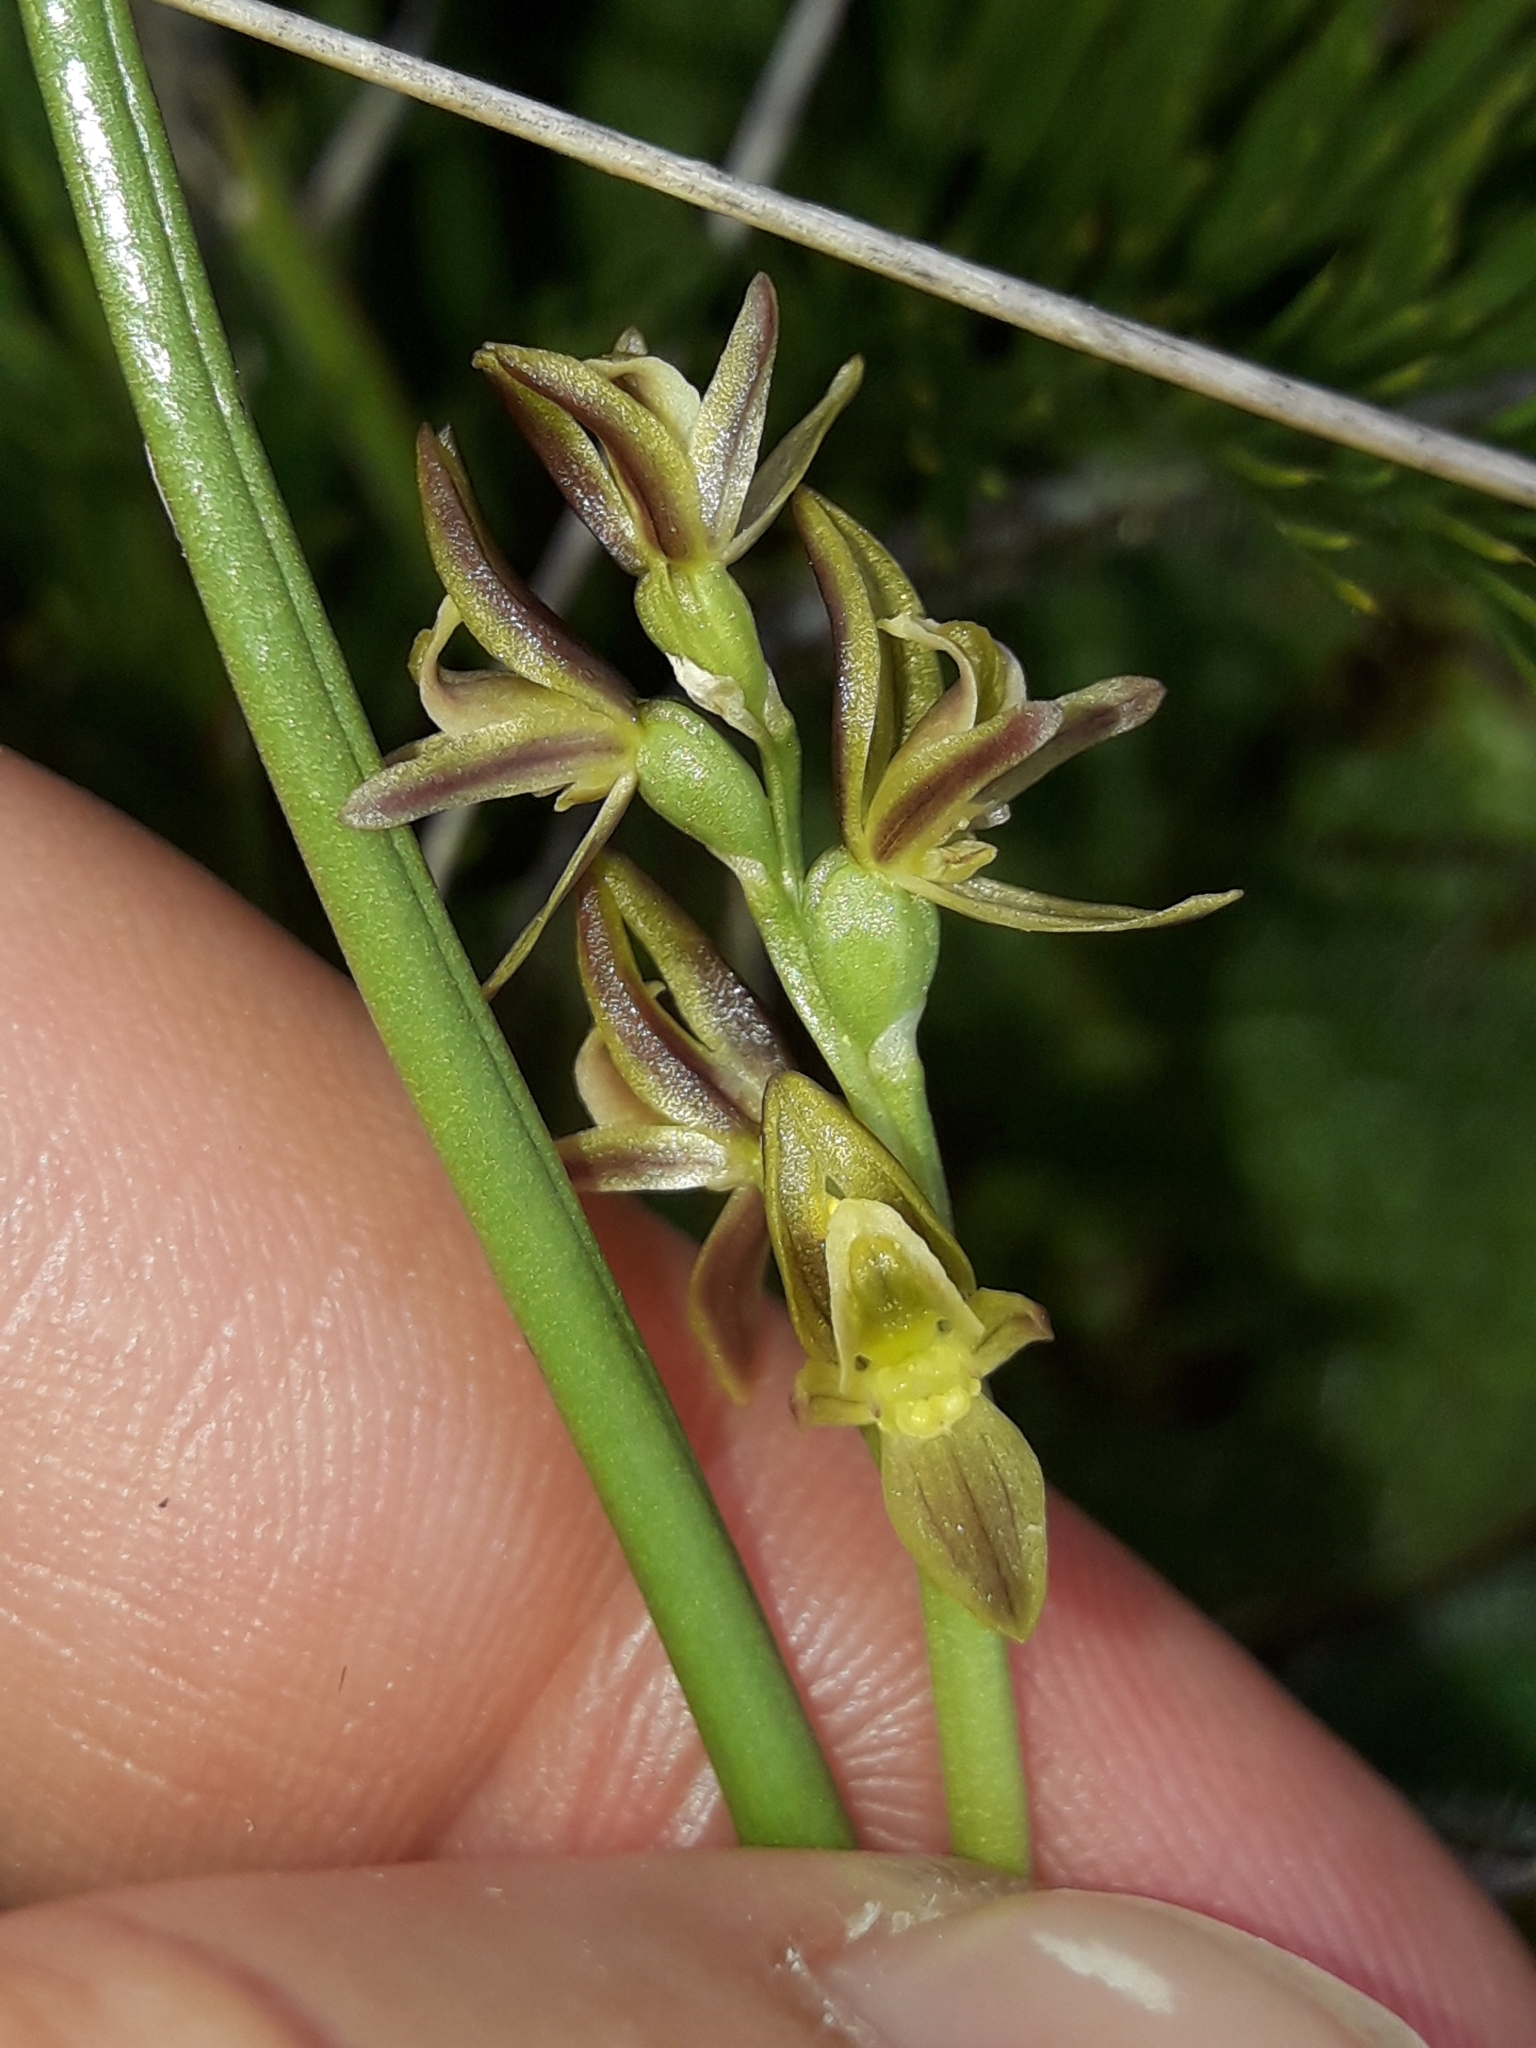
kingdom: Plantae
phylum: Tracheophyta
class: Liliopsida
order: Asparagales
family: Orchidaceae
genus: Prasophyllum
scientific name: Prasophyllum colensoi
